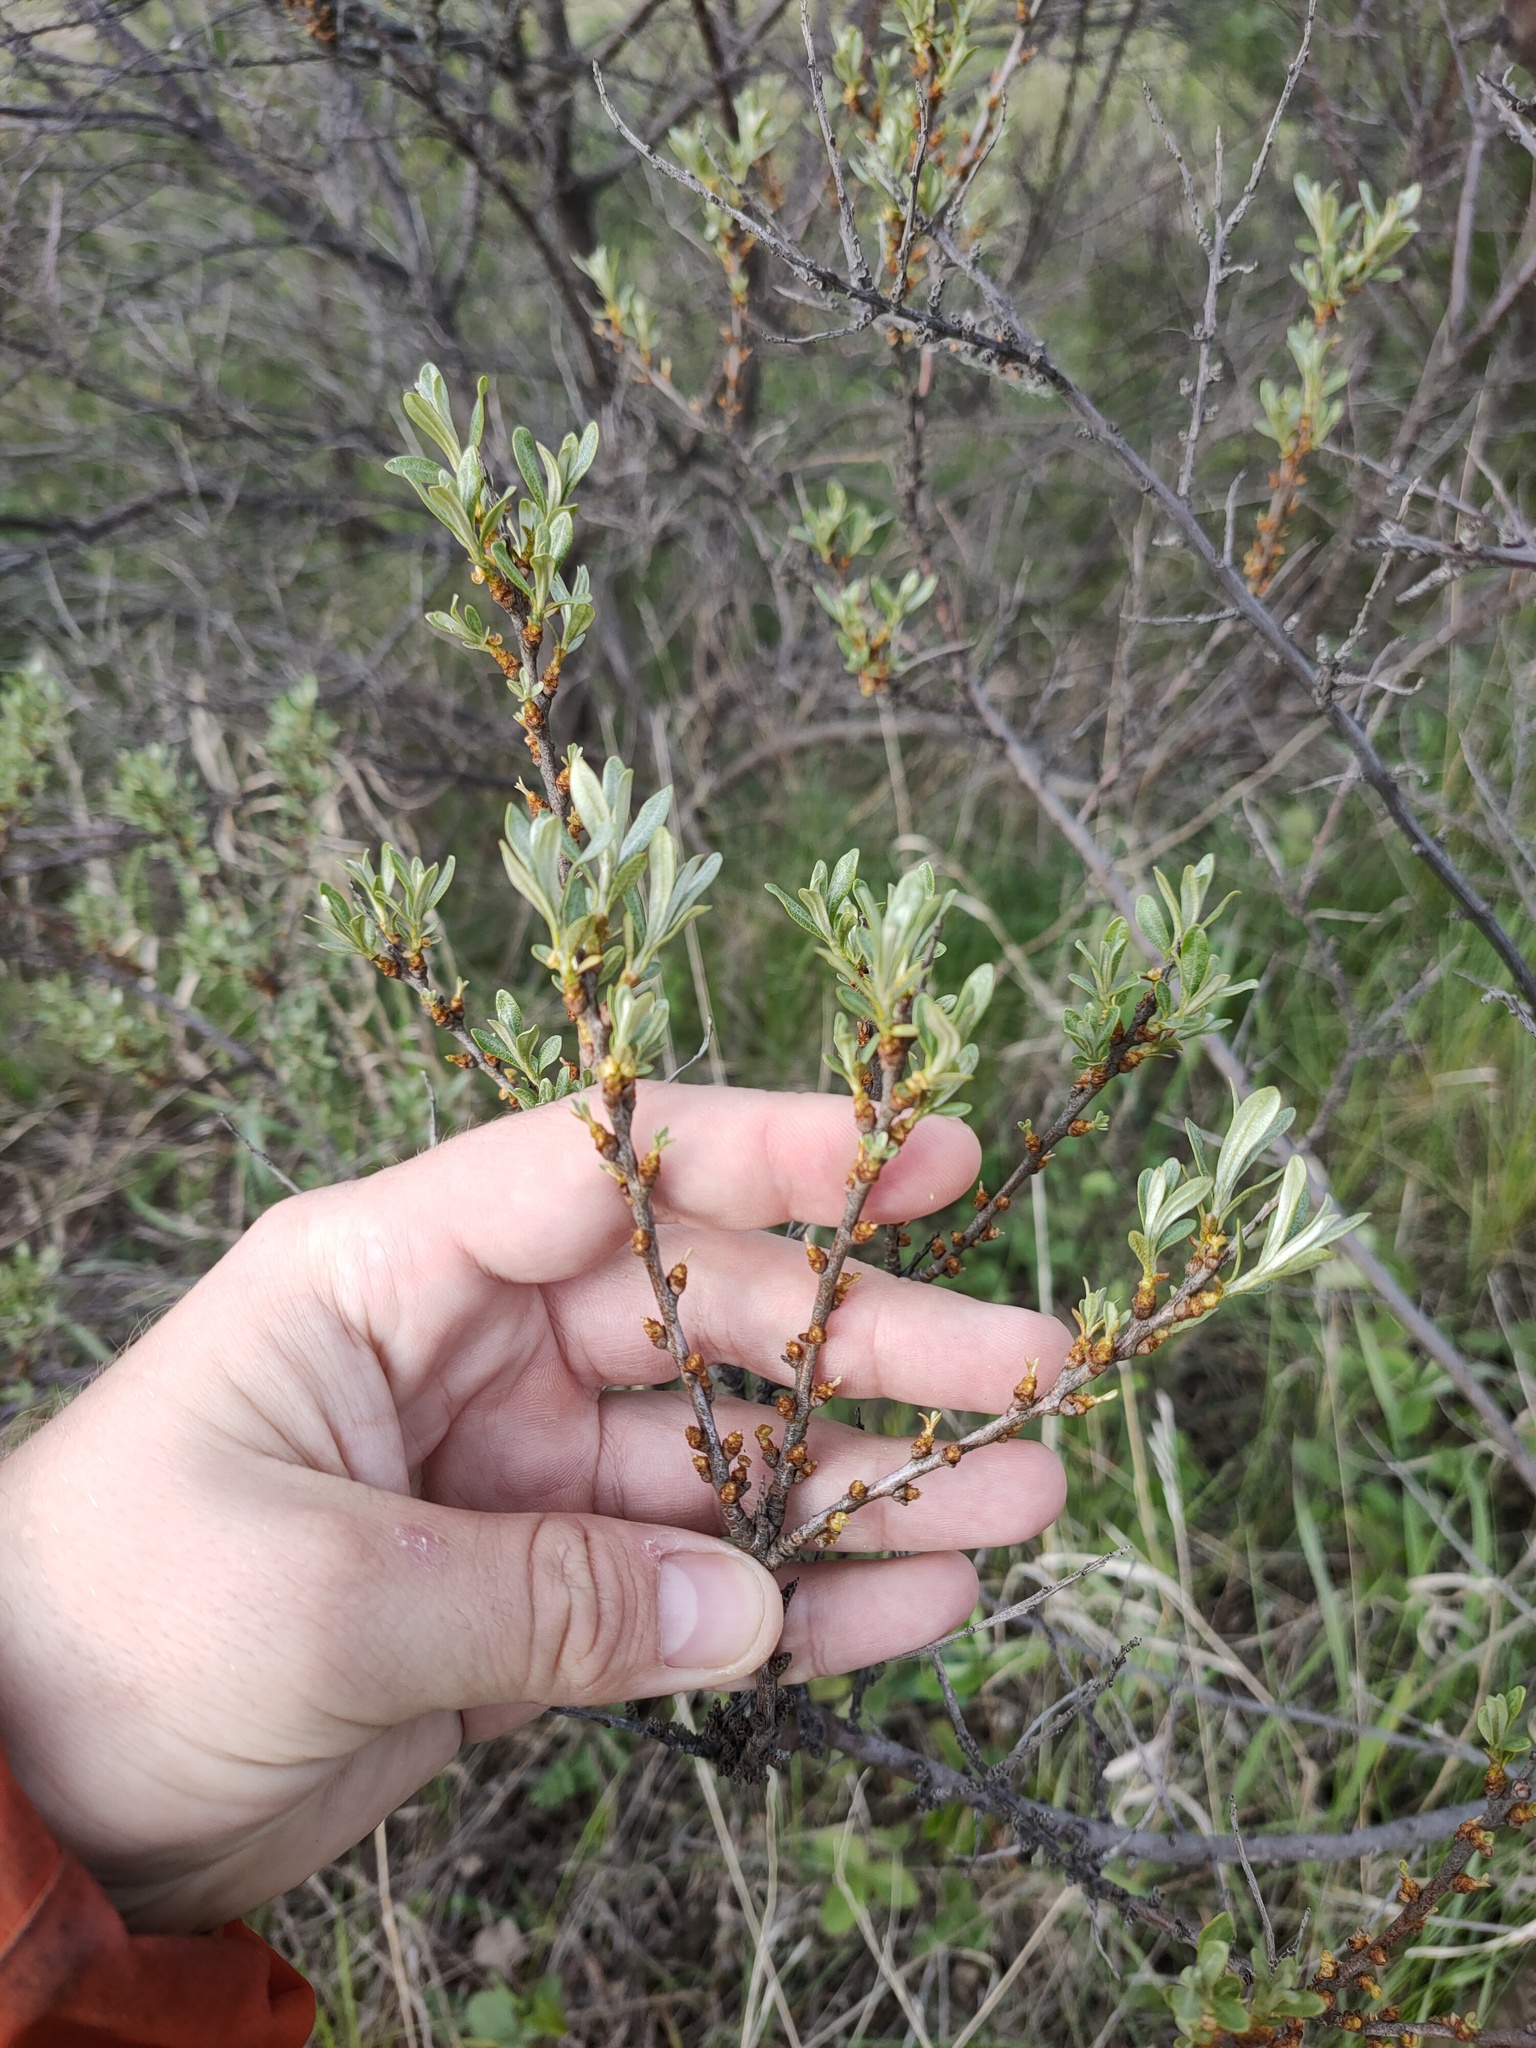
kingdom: Plantae
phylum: Tracheophyta
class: Magnoliopsida
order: Rosales
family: Elaeagnaceae
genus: Hippophae
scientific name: Hippophae rhamnoides
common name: Sea-buckthorn
